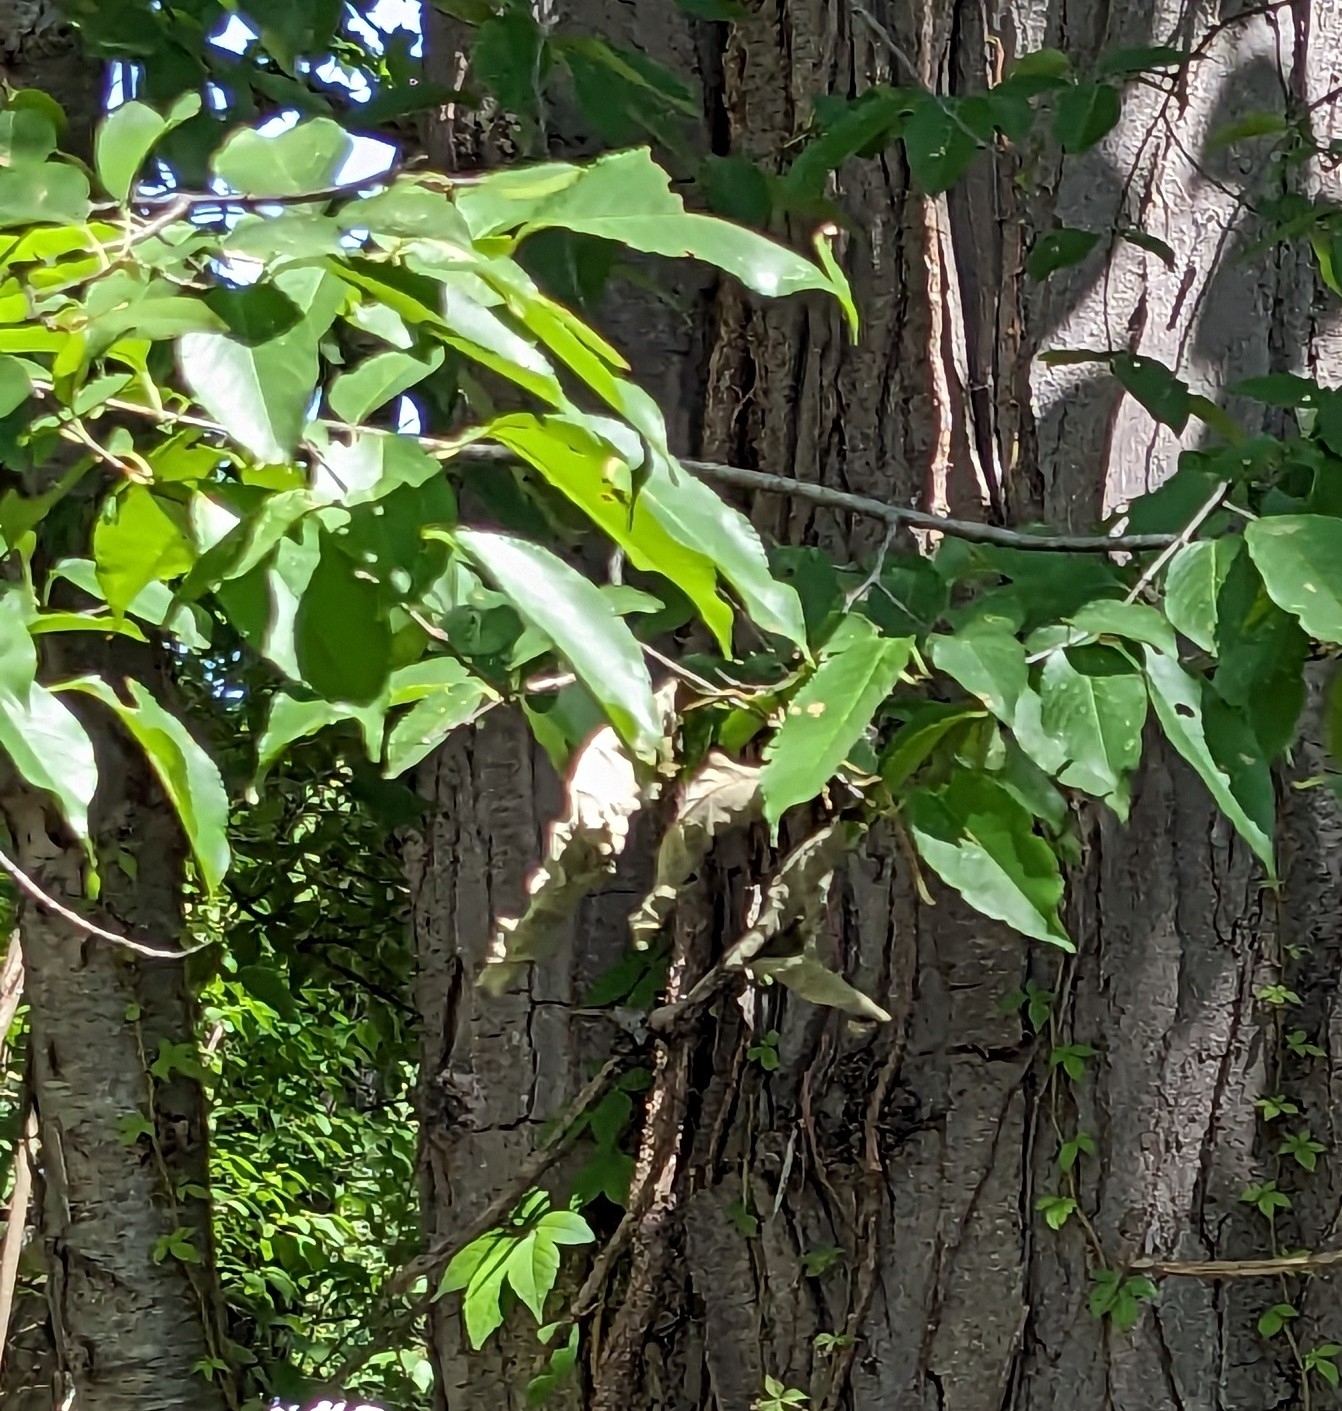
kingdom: Plantae
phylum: Tracheophyta
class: Magnoliopsida
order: Rosales
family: Rosaceae
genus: Prunus
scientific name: Prunus serotina
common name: Black cherry
